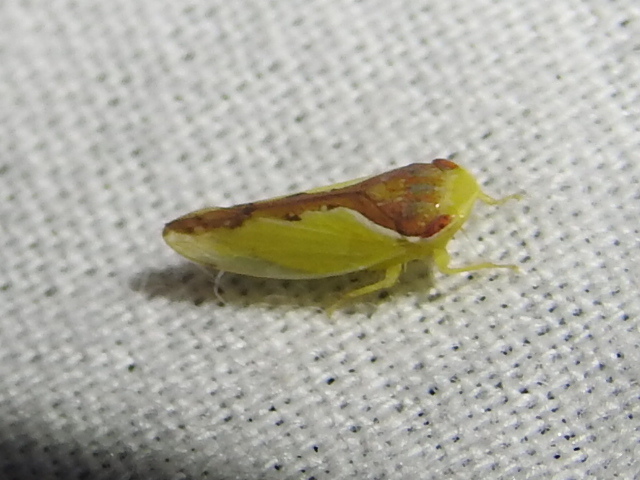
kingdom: Animalia
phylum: Arthropoda
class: Insecta
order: Hemiptera
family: Cicadellidae
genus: Omansobara ing
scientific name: Omansobara ing Omansobara palliolata
